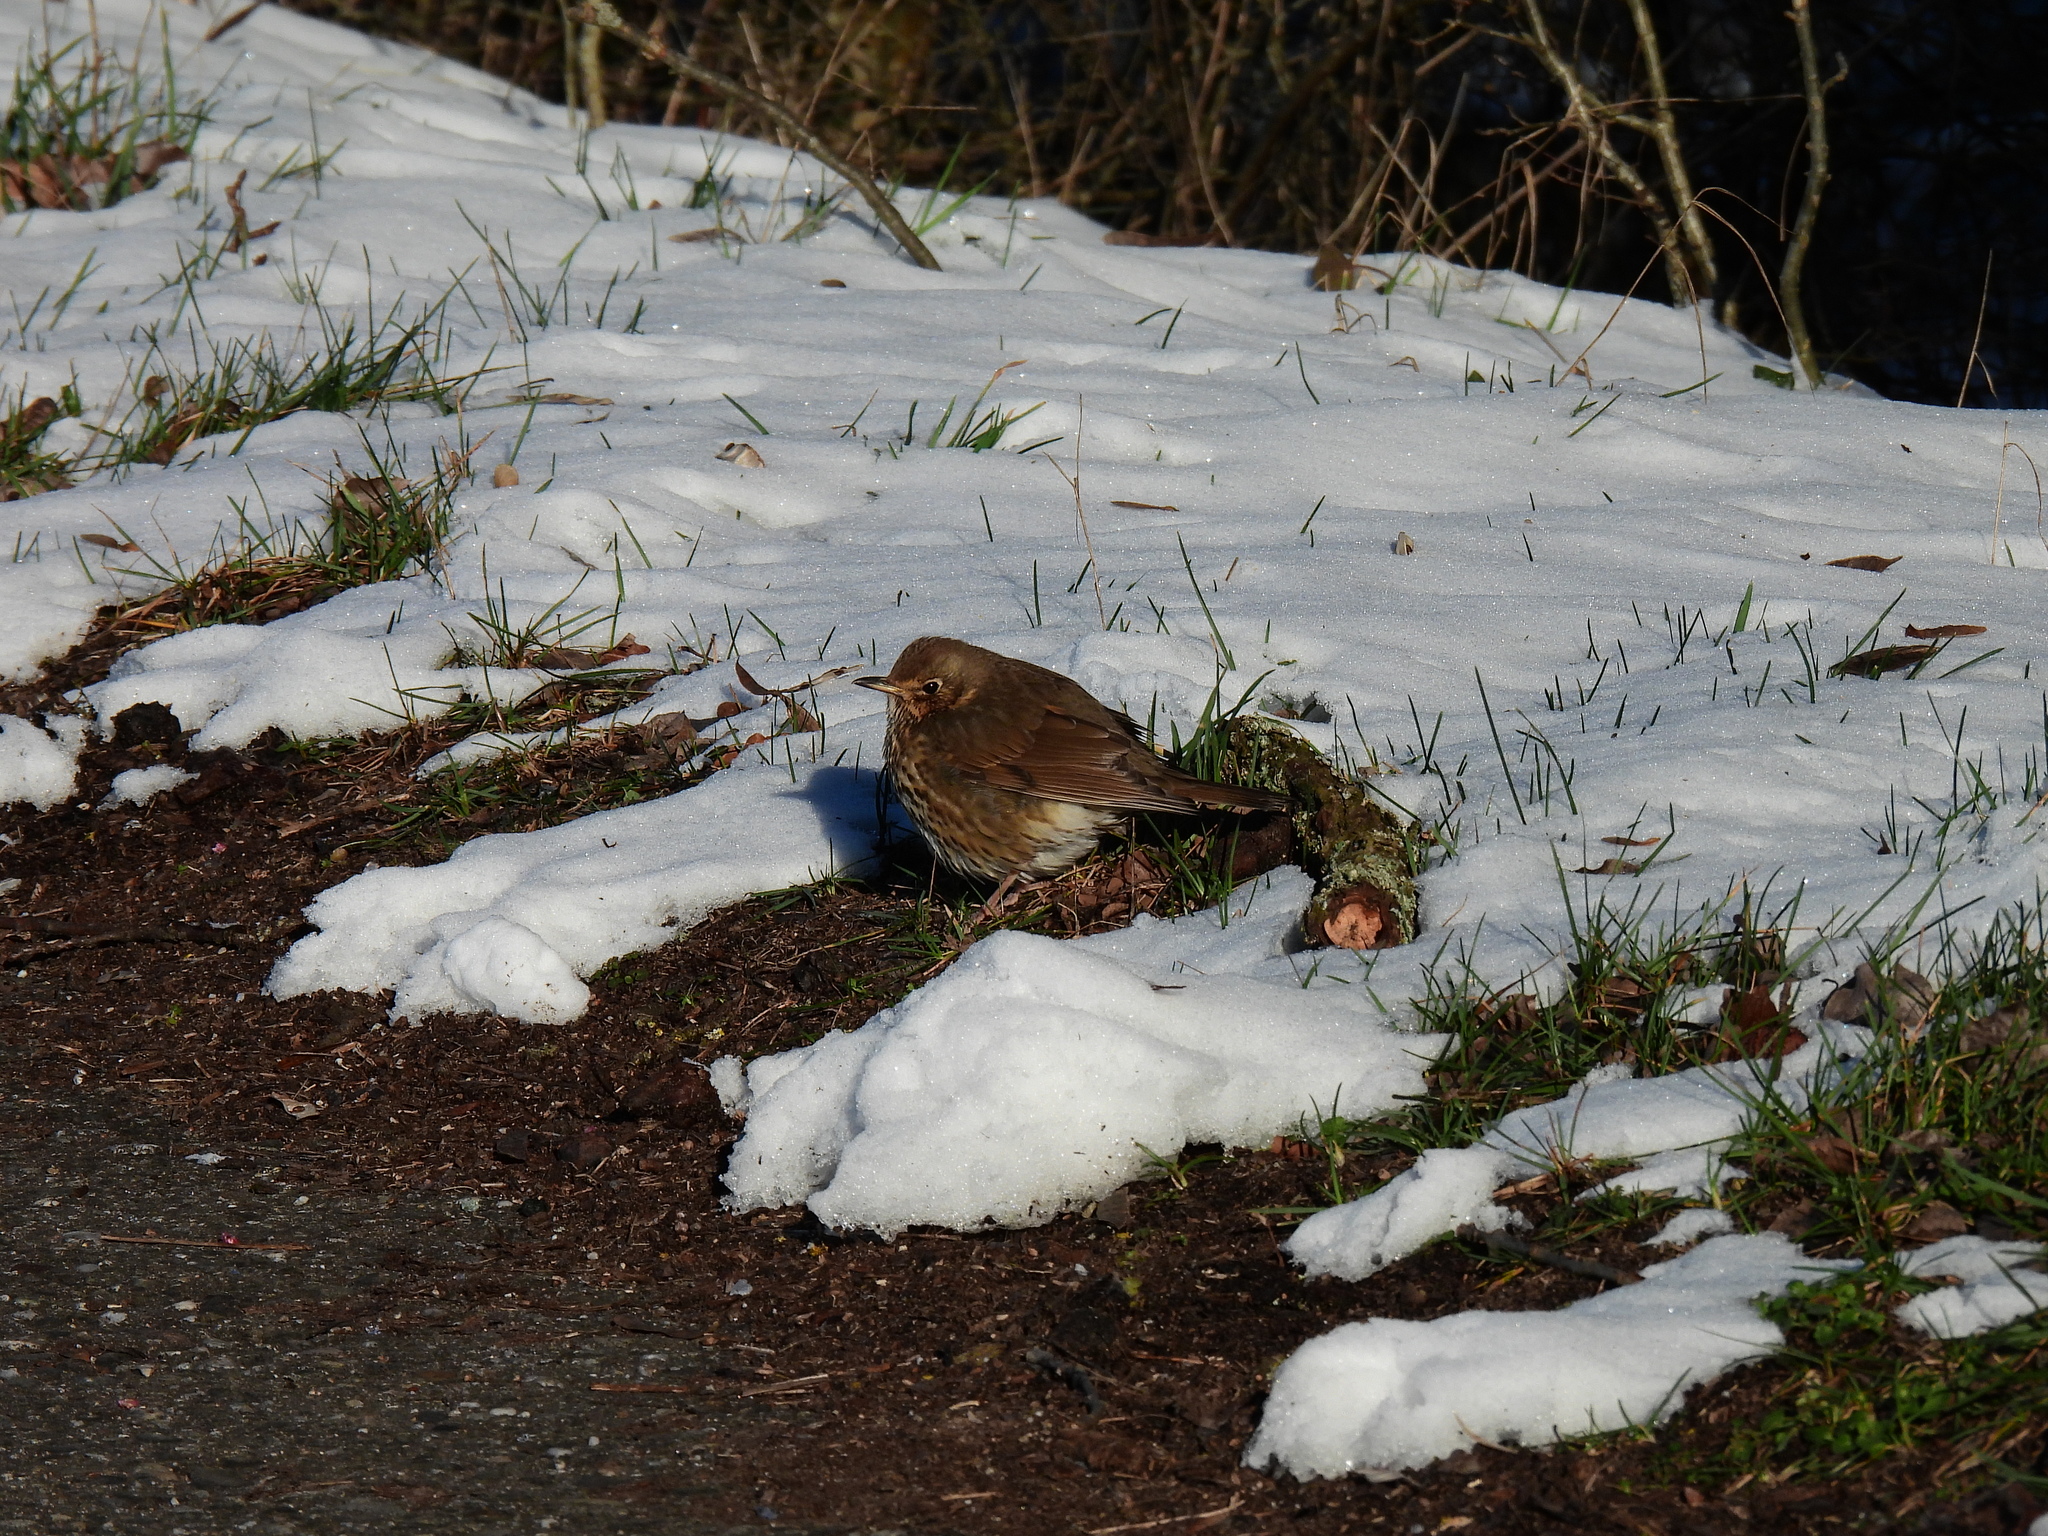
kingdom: Animalia
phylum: Chordata
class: Aves
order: Passeriformes
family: Turdidae
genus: Turdus
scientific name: Turdus philomelos
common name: Song thrush
